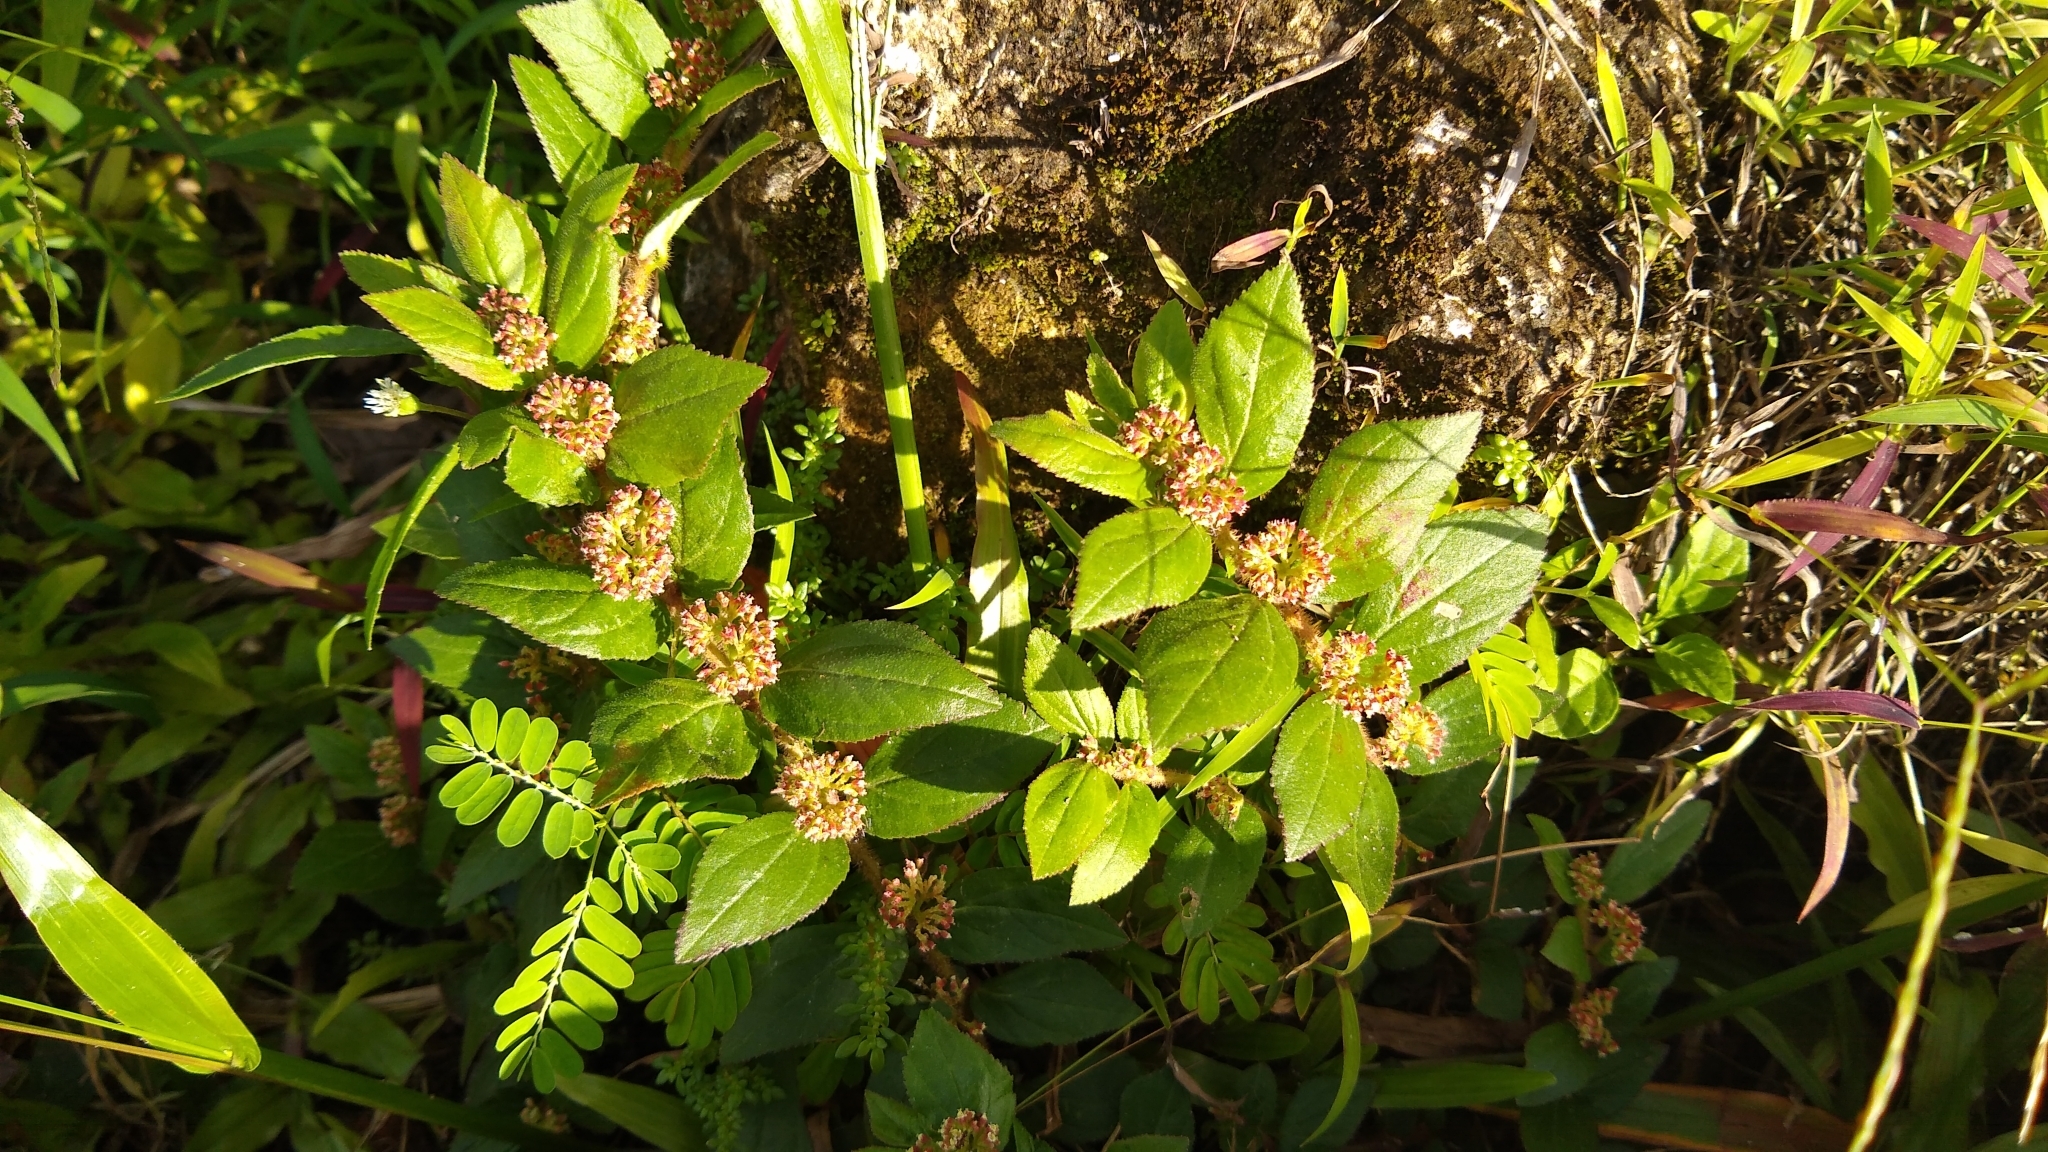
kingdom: Plantae
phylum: Tracheophyta
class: Magnoliopsida
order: Malpighiales
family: Euphorbiaceae
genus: Euphorbia
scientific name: Euphorbia hirta
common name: Pillpod sandmat
